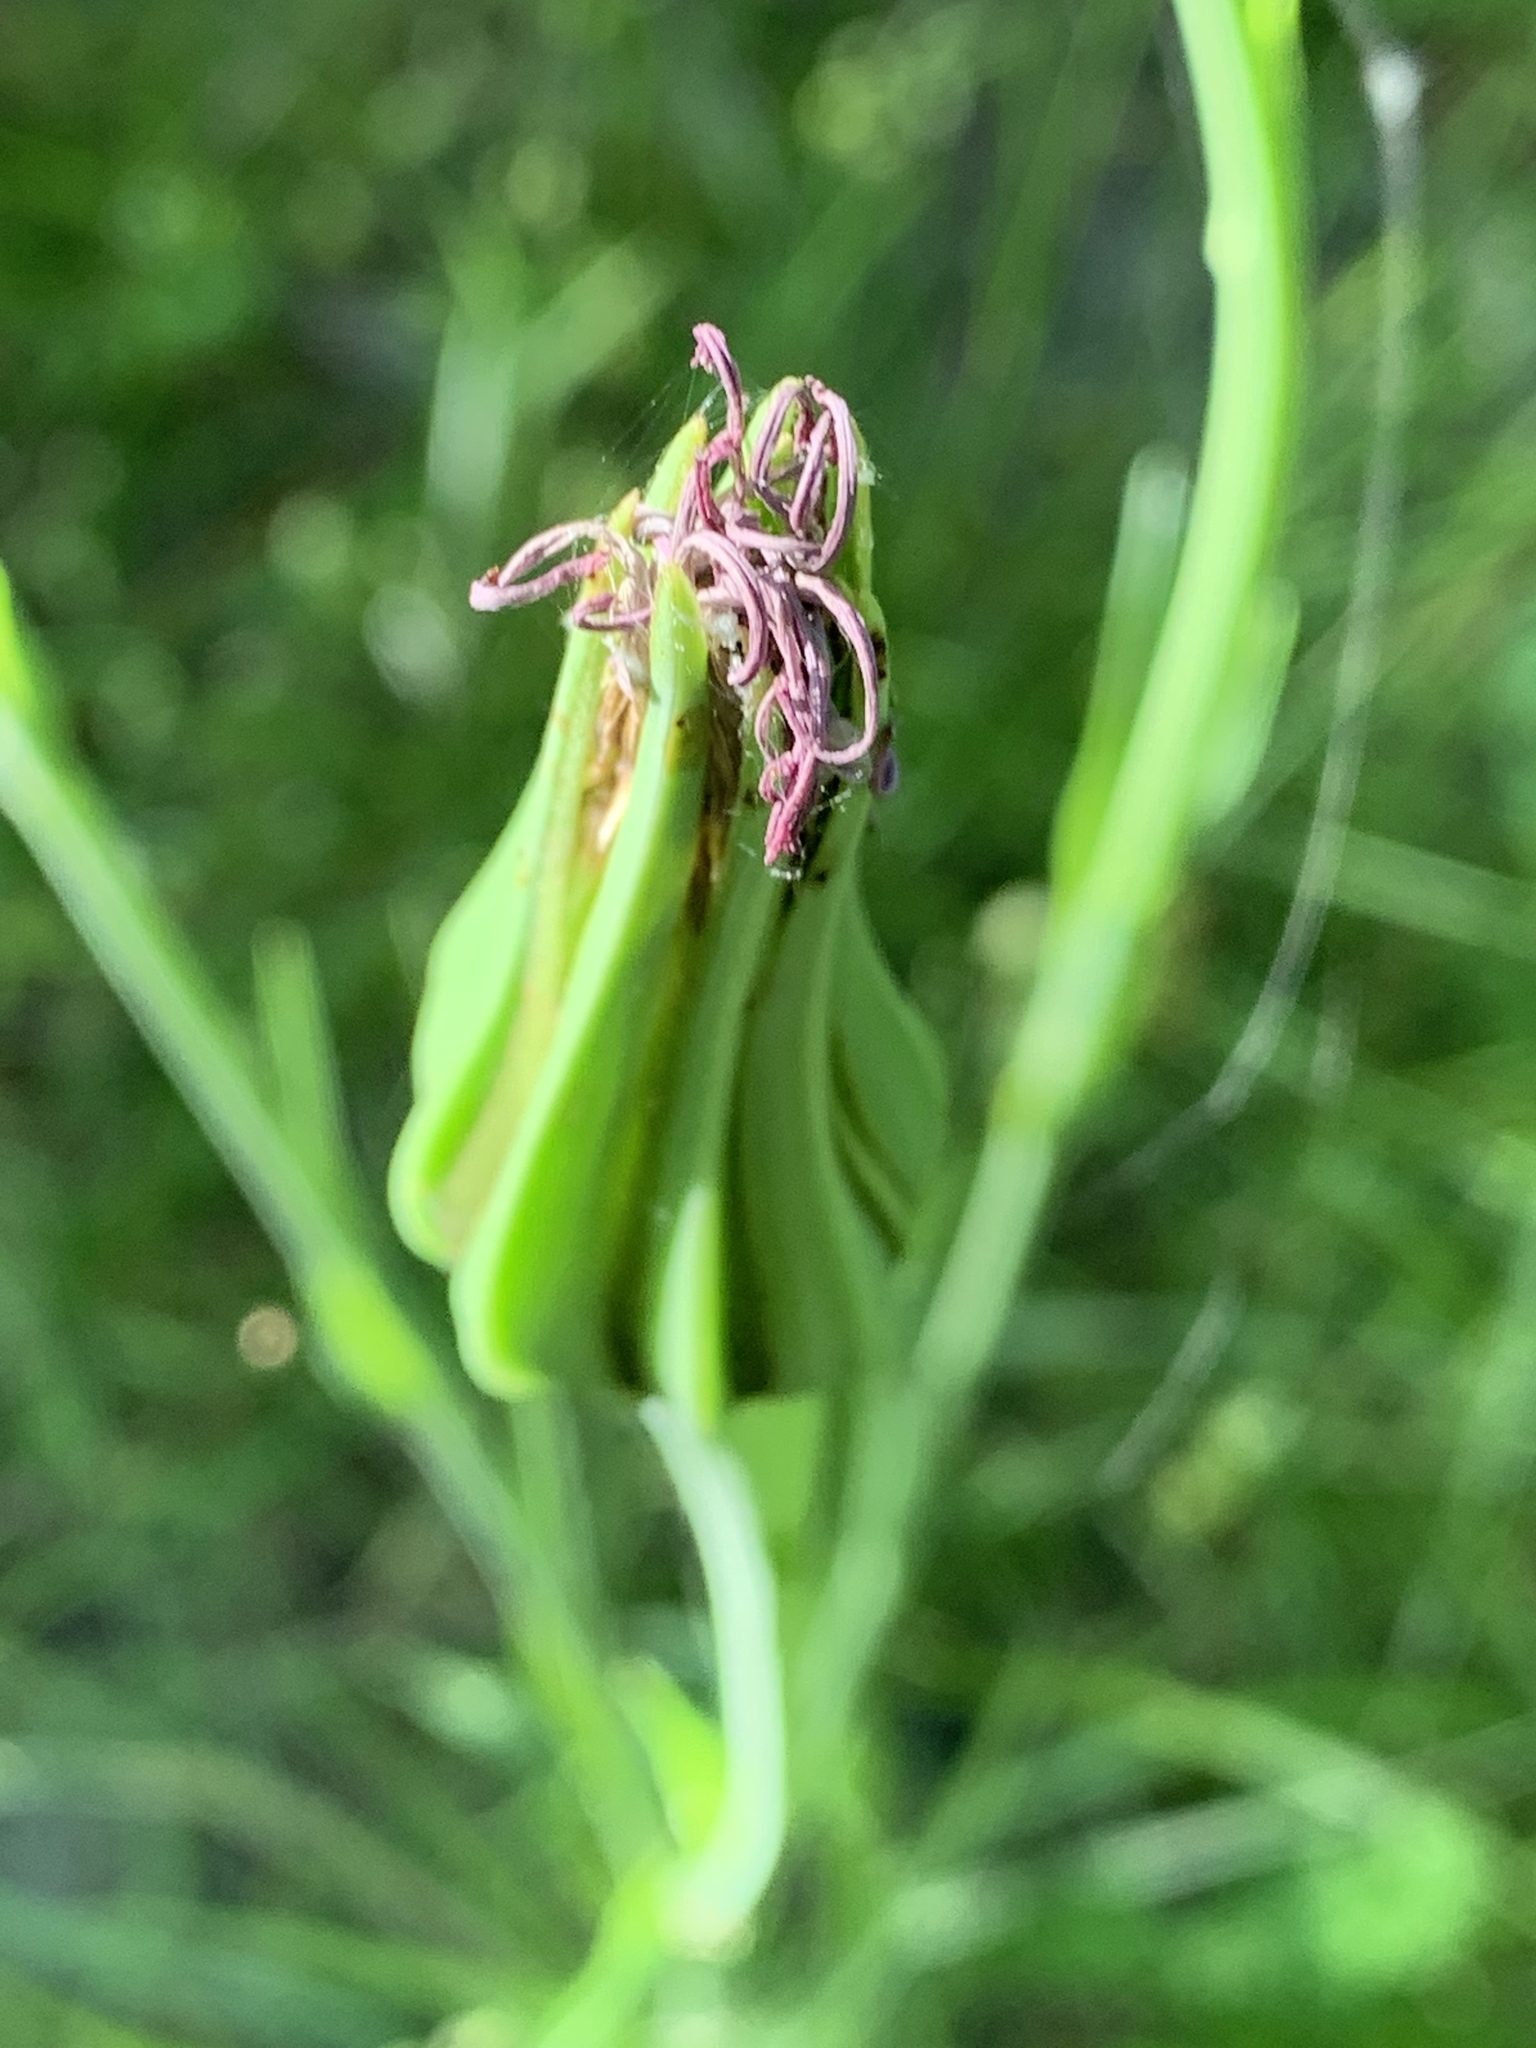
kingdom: Plantae
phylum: Tracheophyta
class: Magnoliopsida
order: Asterales
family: Asteraceae
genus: Tragopogon
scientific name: Tragopogon porrifolius
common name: Salsify
